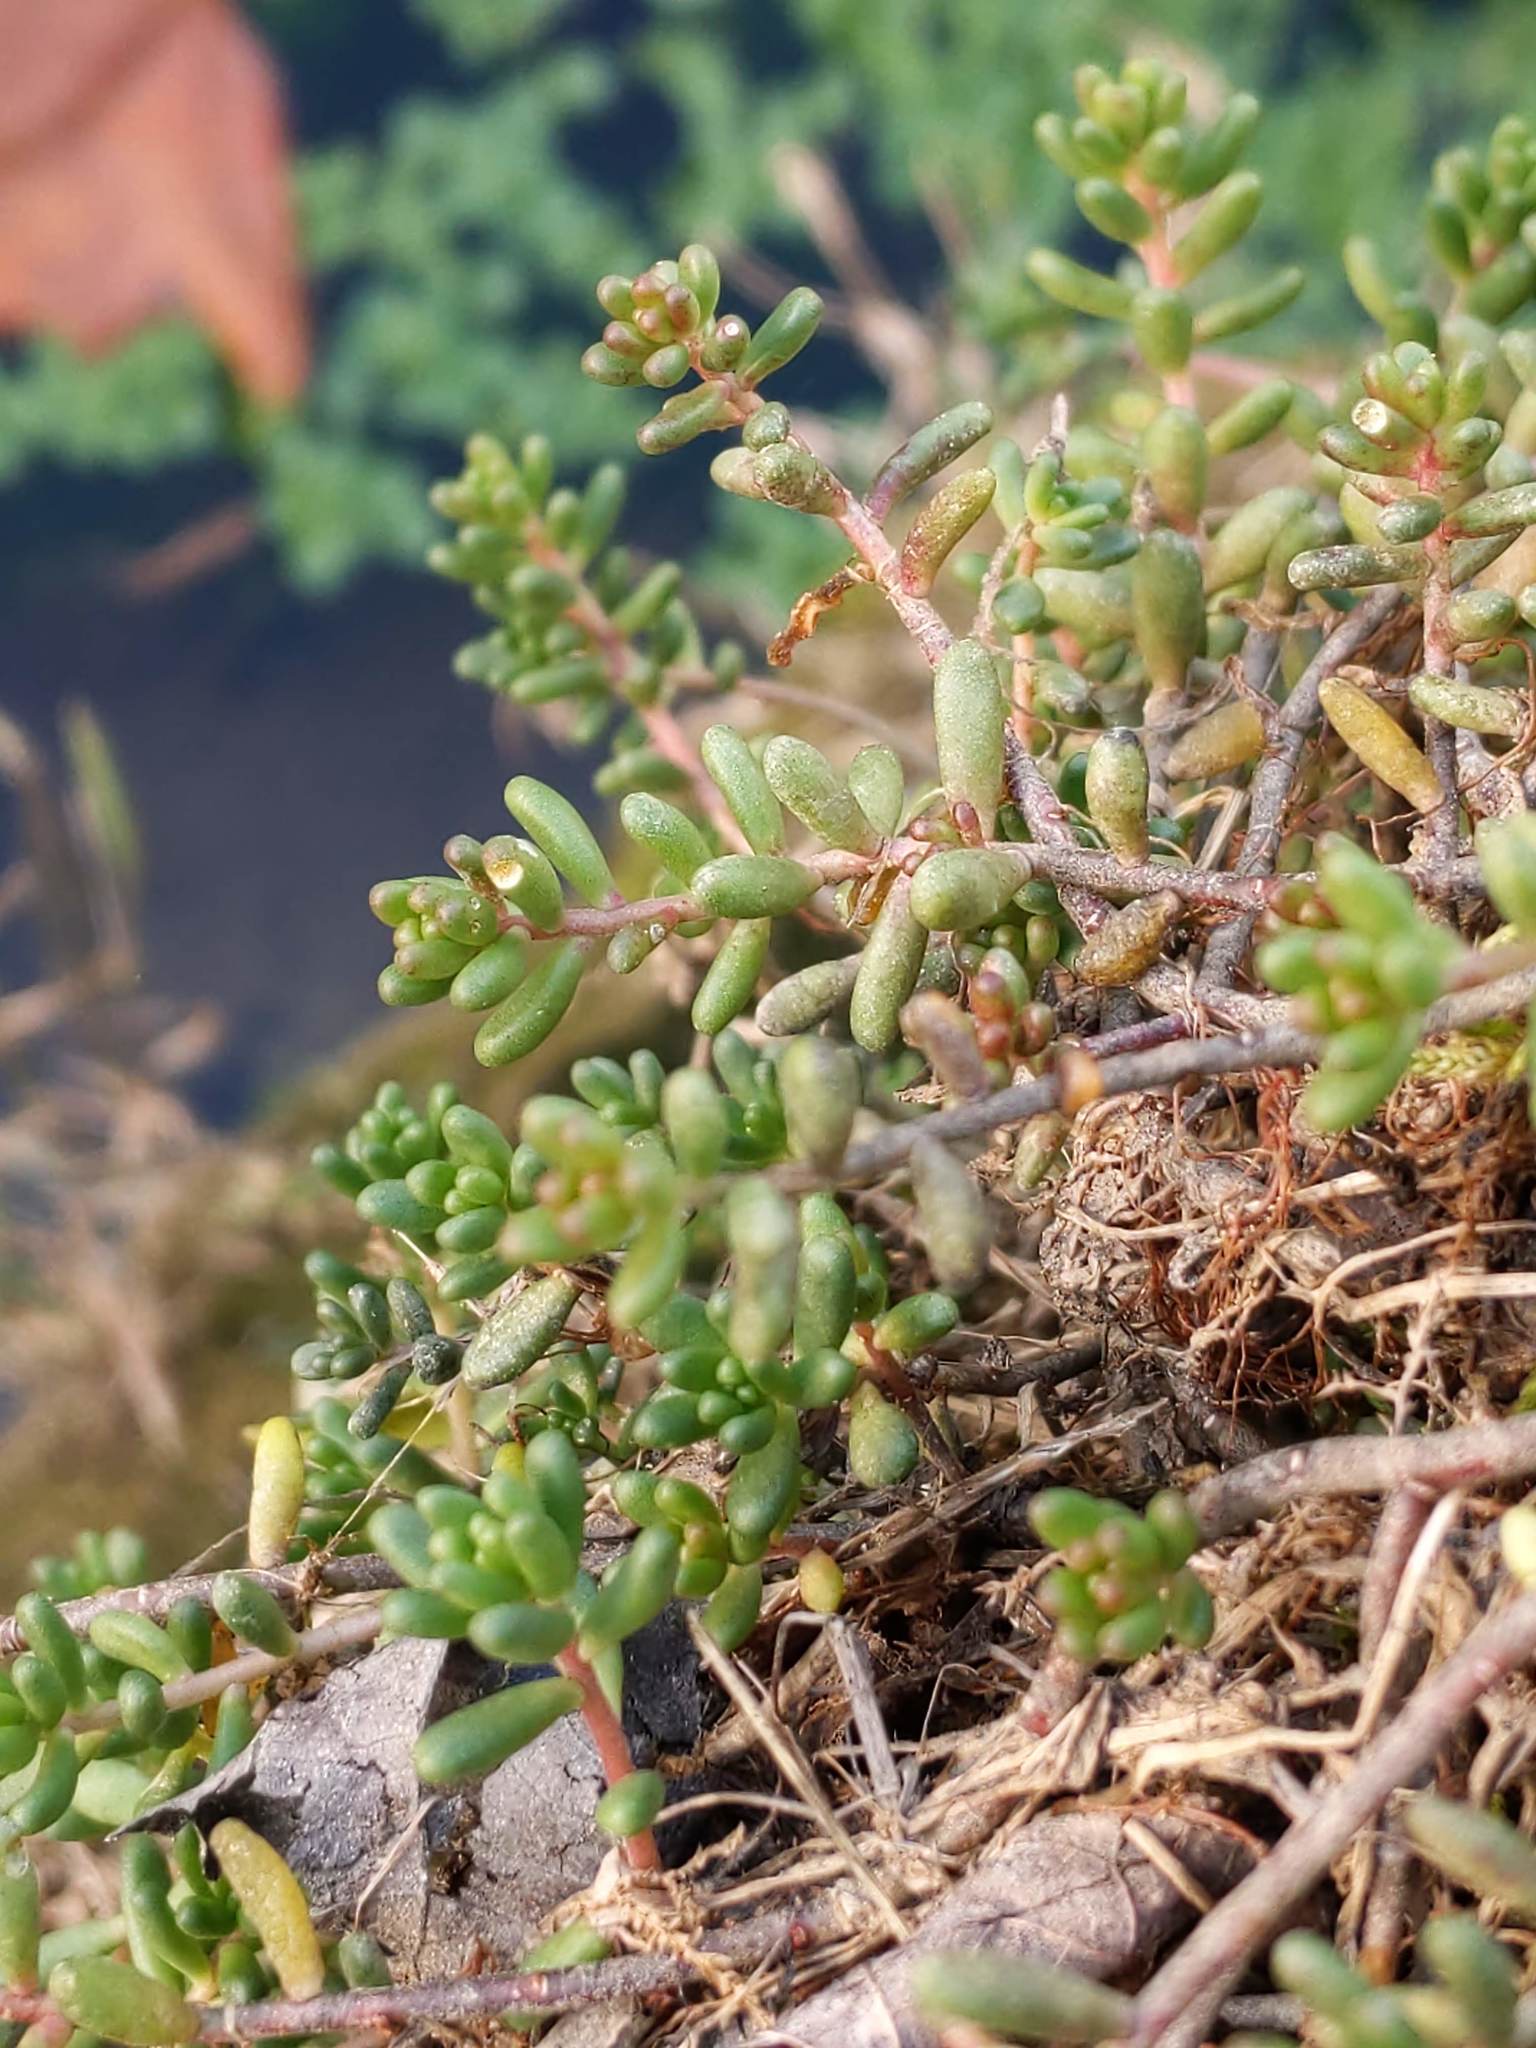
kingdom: Plantae
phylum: Tracheophyta
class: Magnoliopsida
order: Saxifragales
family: Crassulaceae
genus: Sedum
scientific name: Sedum album
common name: White stonecrop
